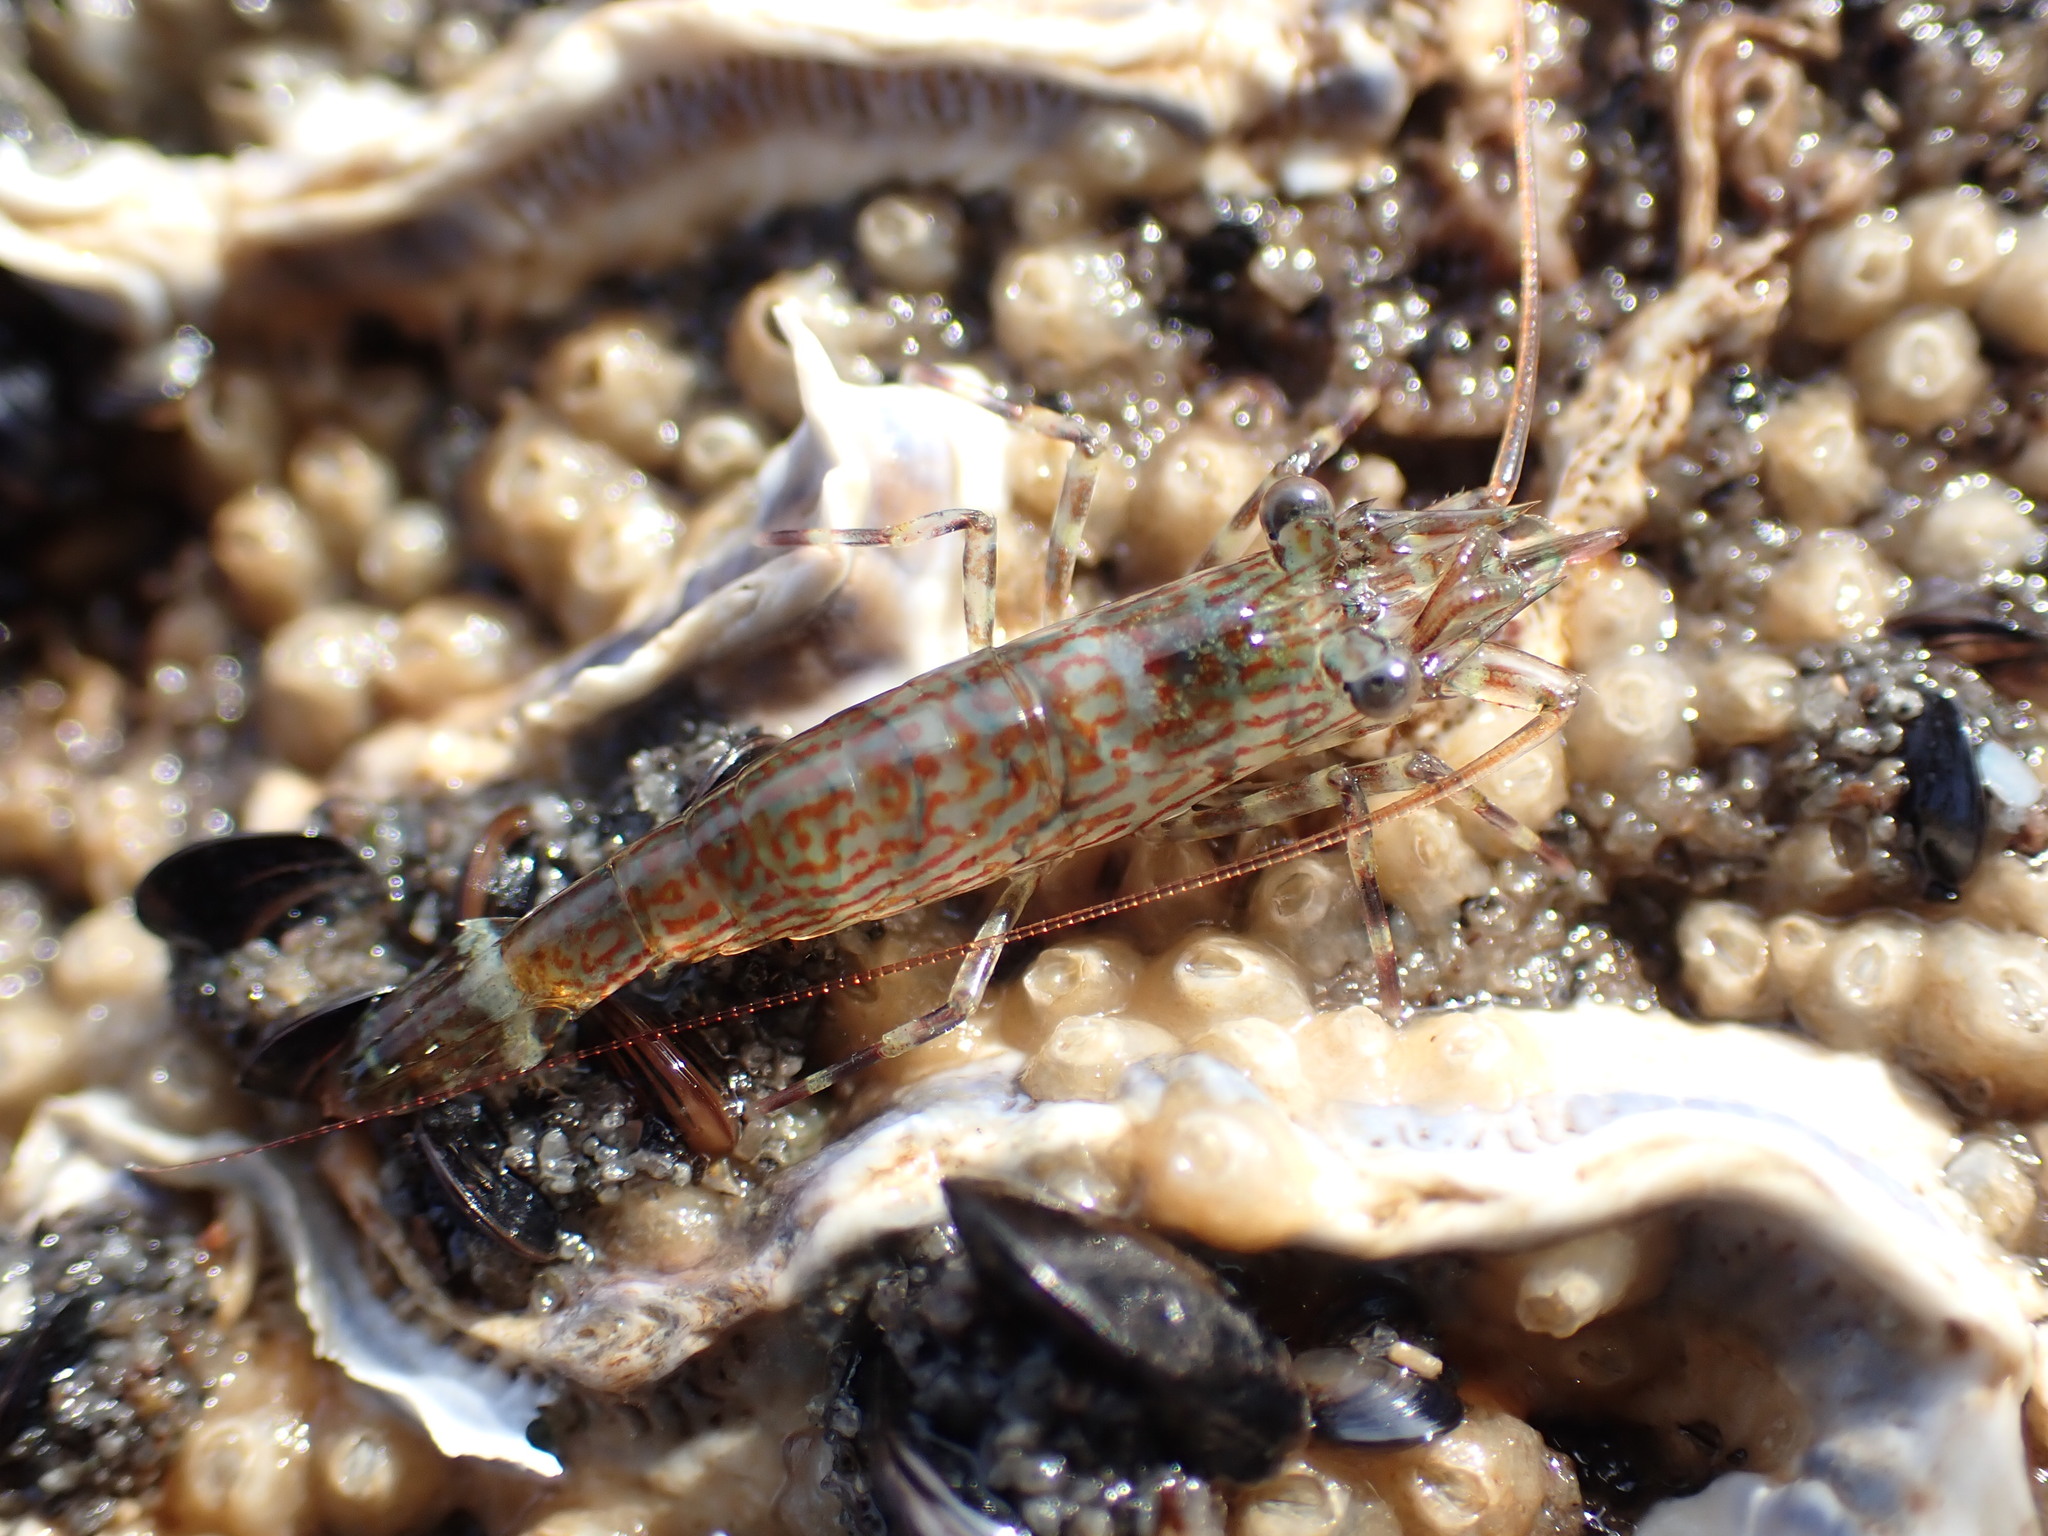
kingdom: Animalia
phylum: Arthropoda
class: Malacostraca
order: Decapoda
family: Hippolytidae
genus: Alope
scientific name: Alope spinifrons
